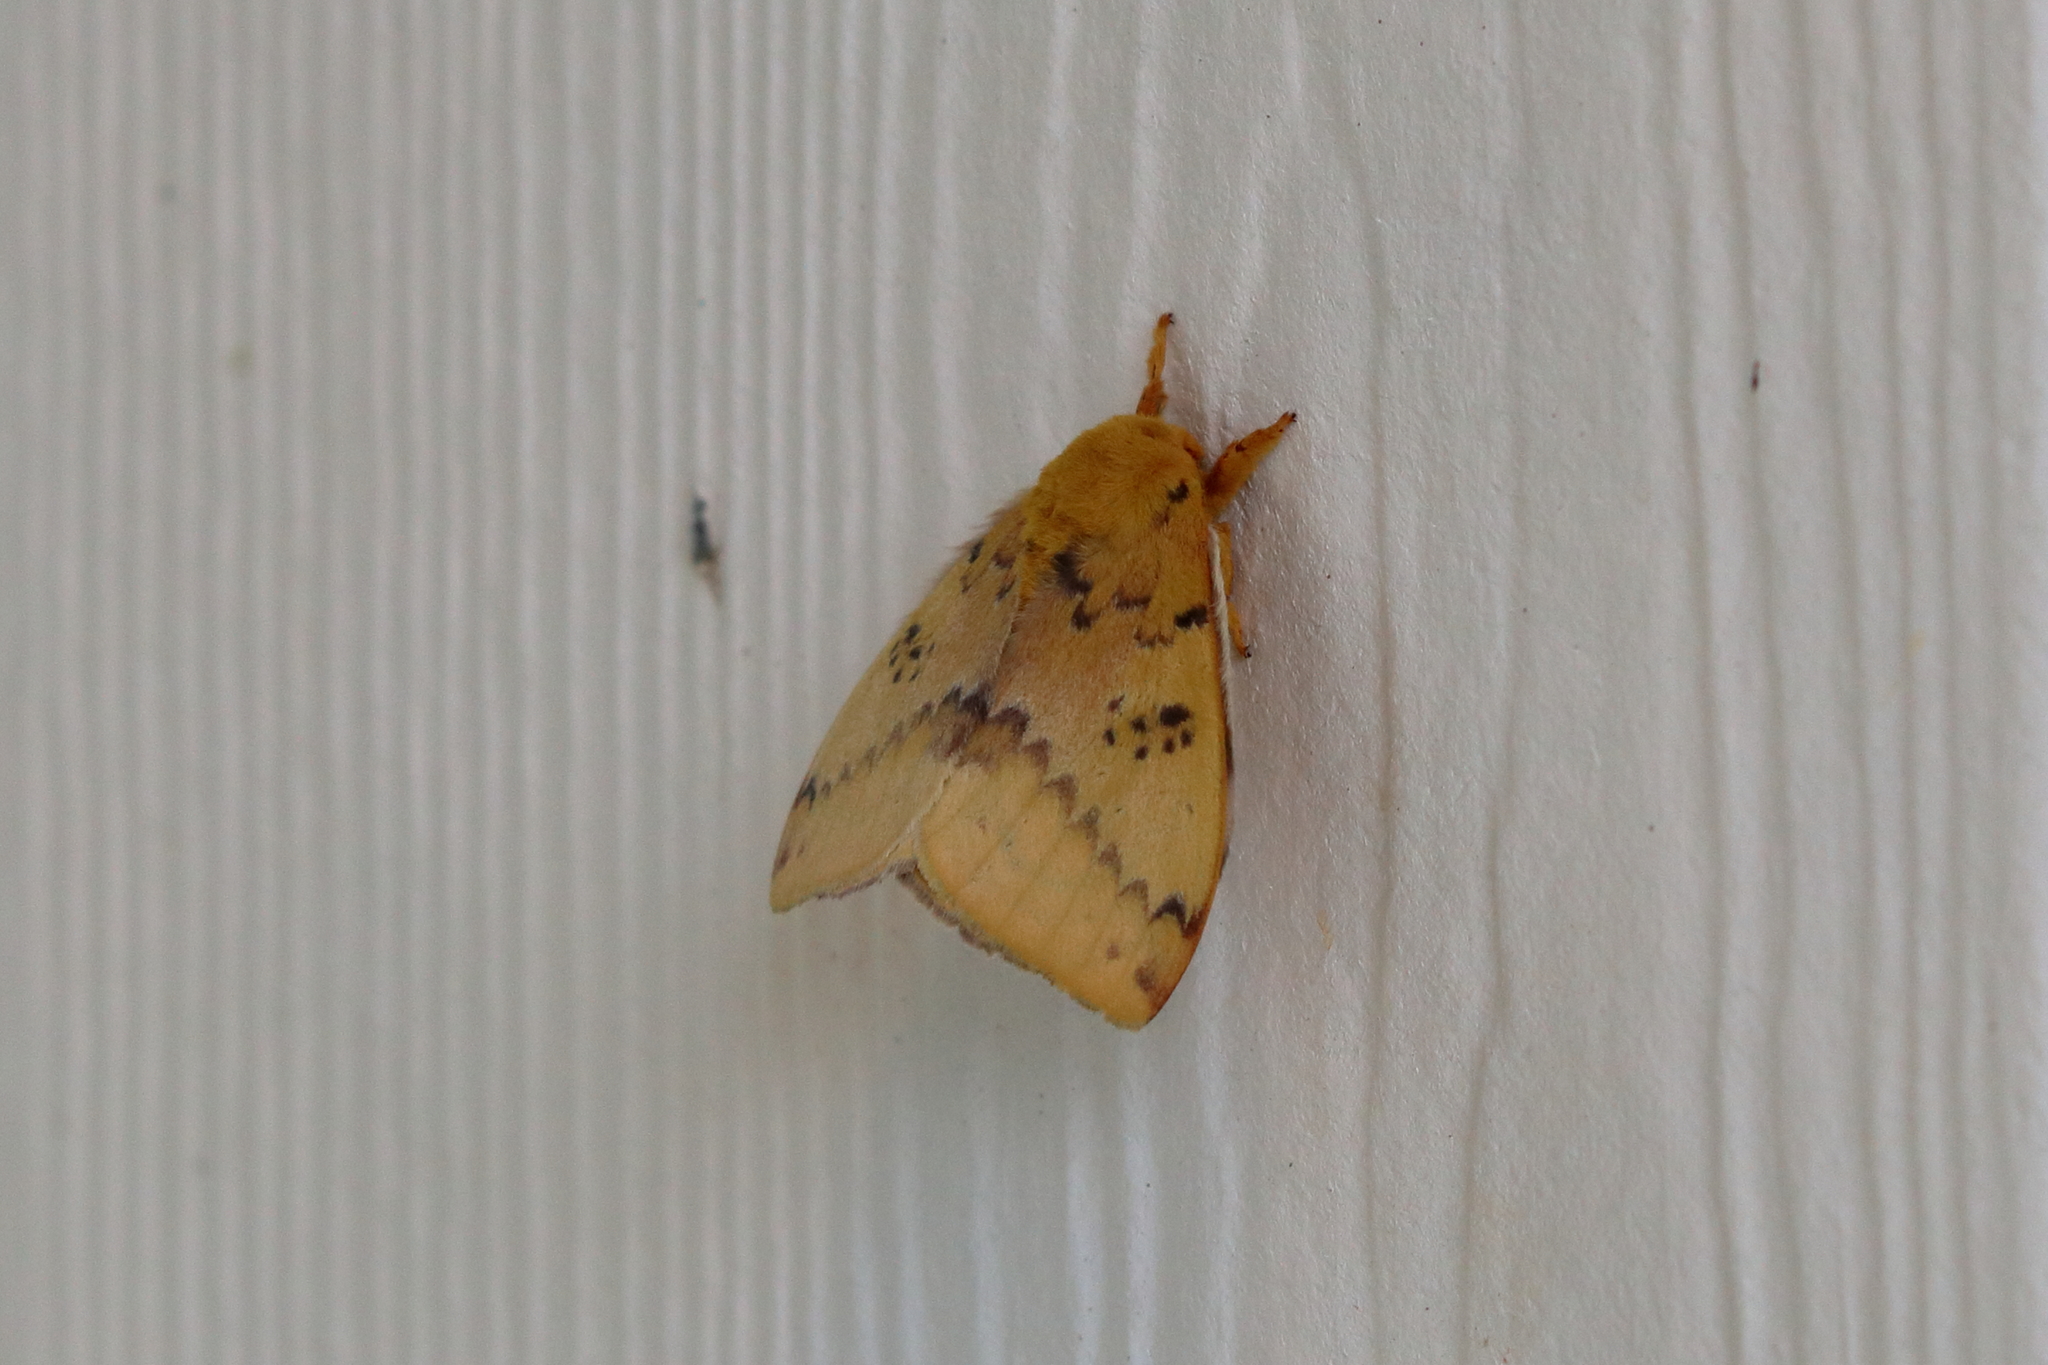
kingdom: Animalia
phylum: Arthropoda
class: Insecta
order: Lepidoptera
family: Saturniidae
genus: Automeris
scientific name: Automeris io
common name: Io moth
